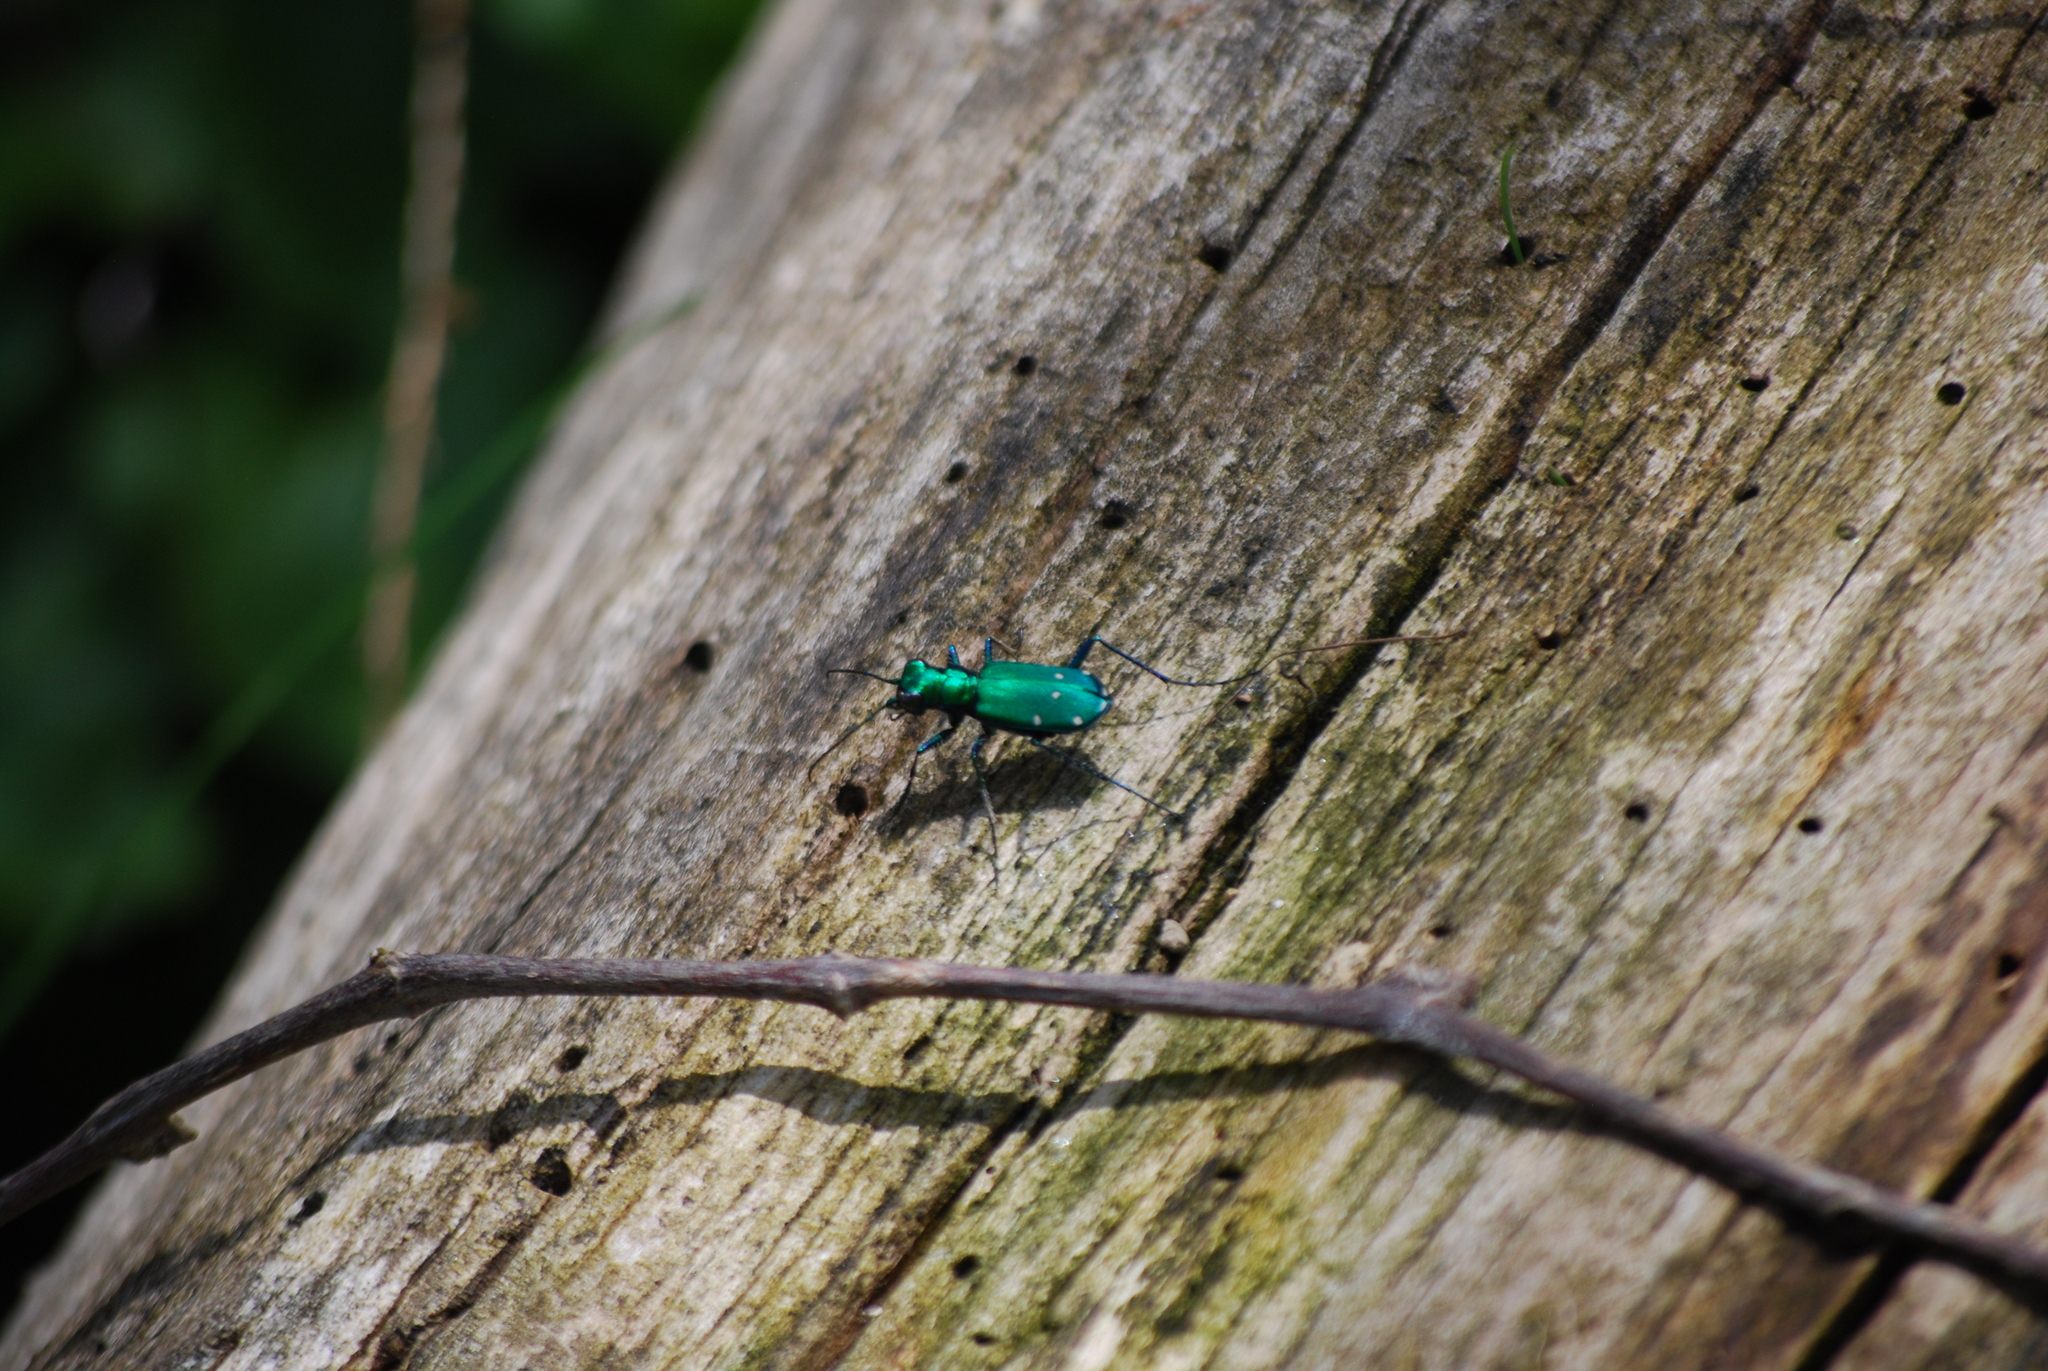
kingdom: Animalia
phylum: Arthropoda
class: Insecta
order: Coleoptera
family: Carabidae
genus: Cicindela
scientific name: Cicindela sexguttata
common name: Six-spotted tiger beetle
